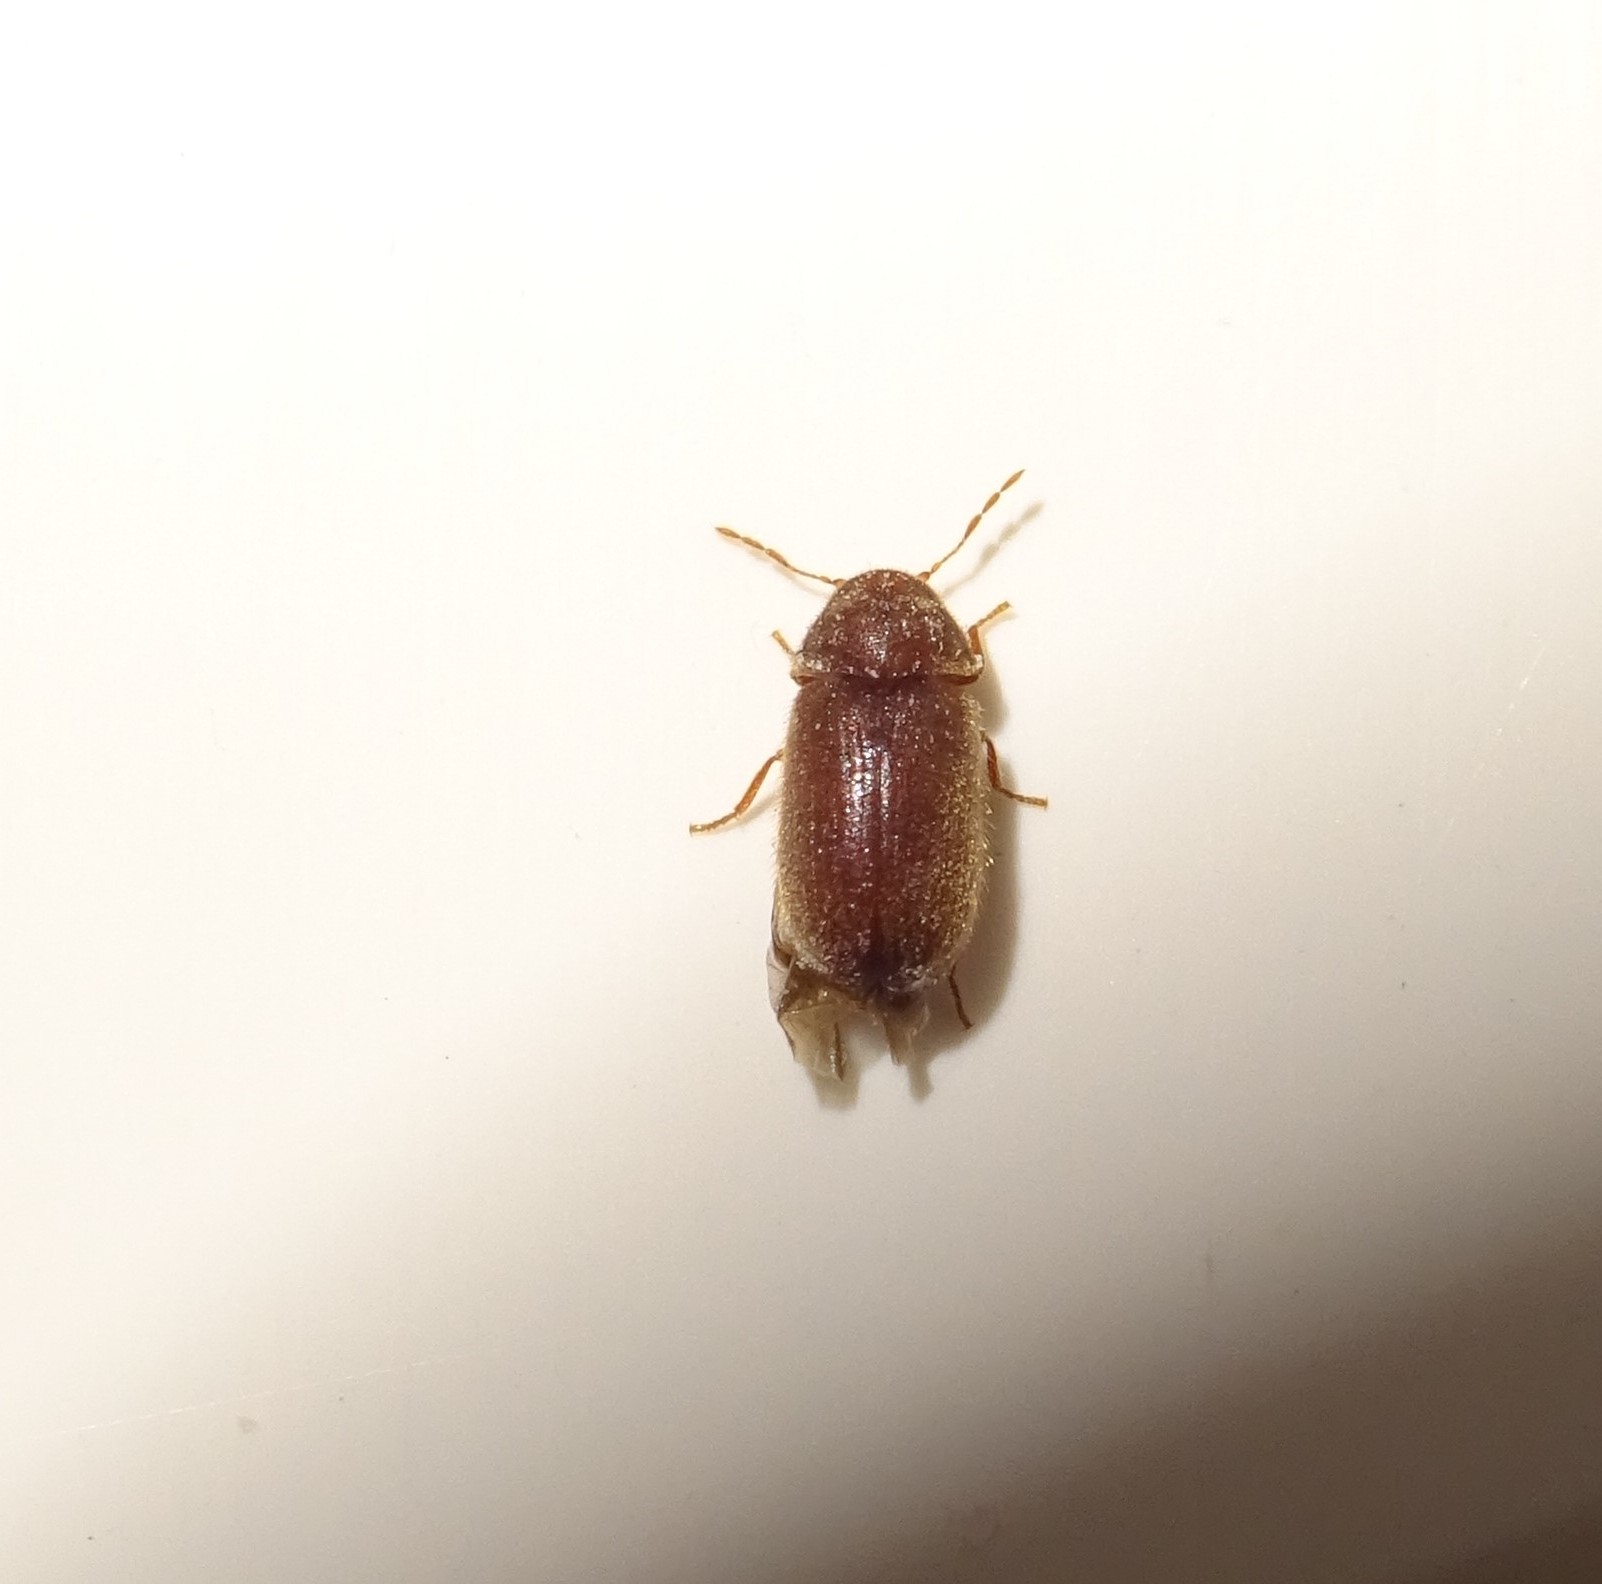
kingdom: Animalia
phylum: Arthropoda
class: Insecta
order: Coleoptera
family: Anobiidae
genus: Stegobium
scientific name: Stegobium paniceum
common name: Drugstore beetle
